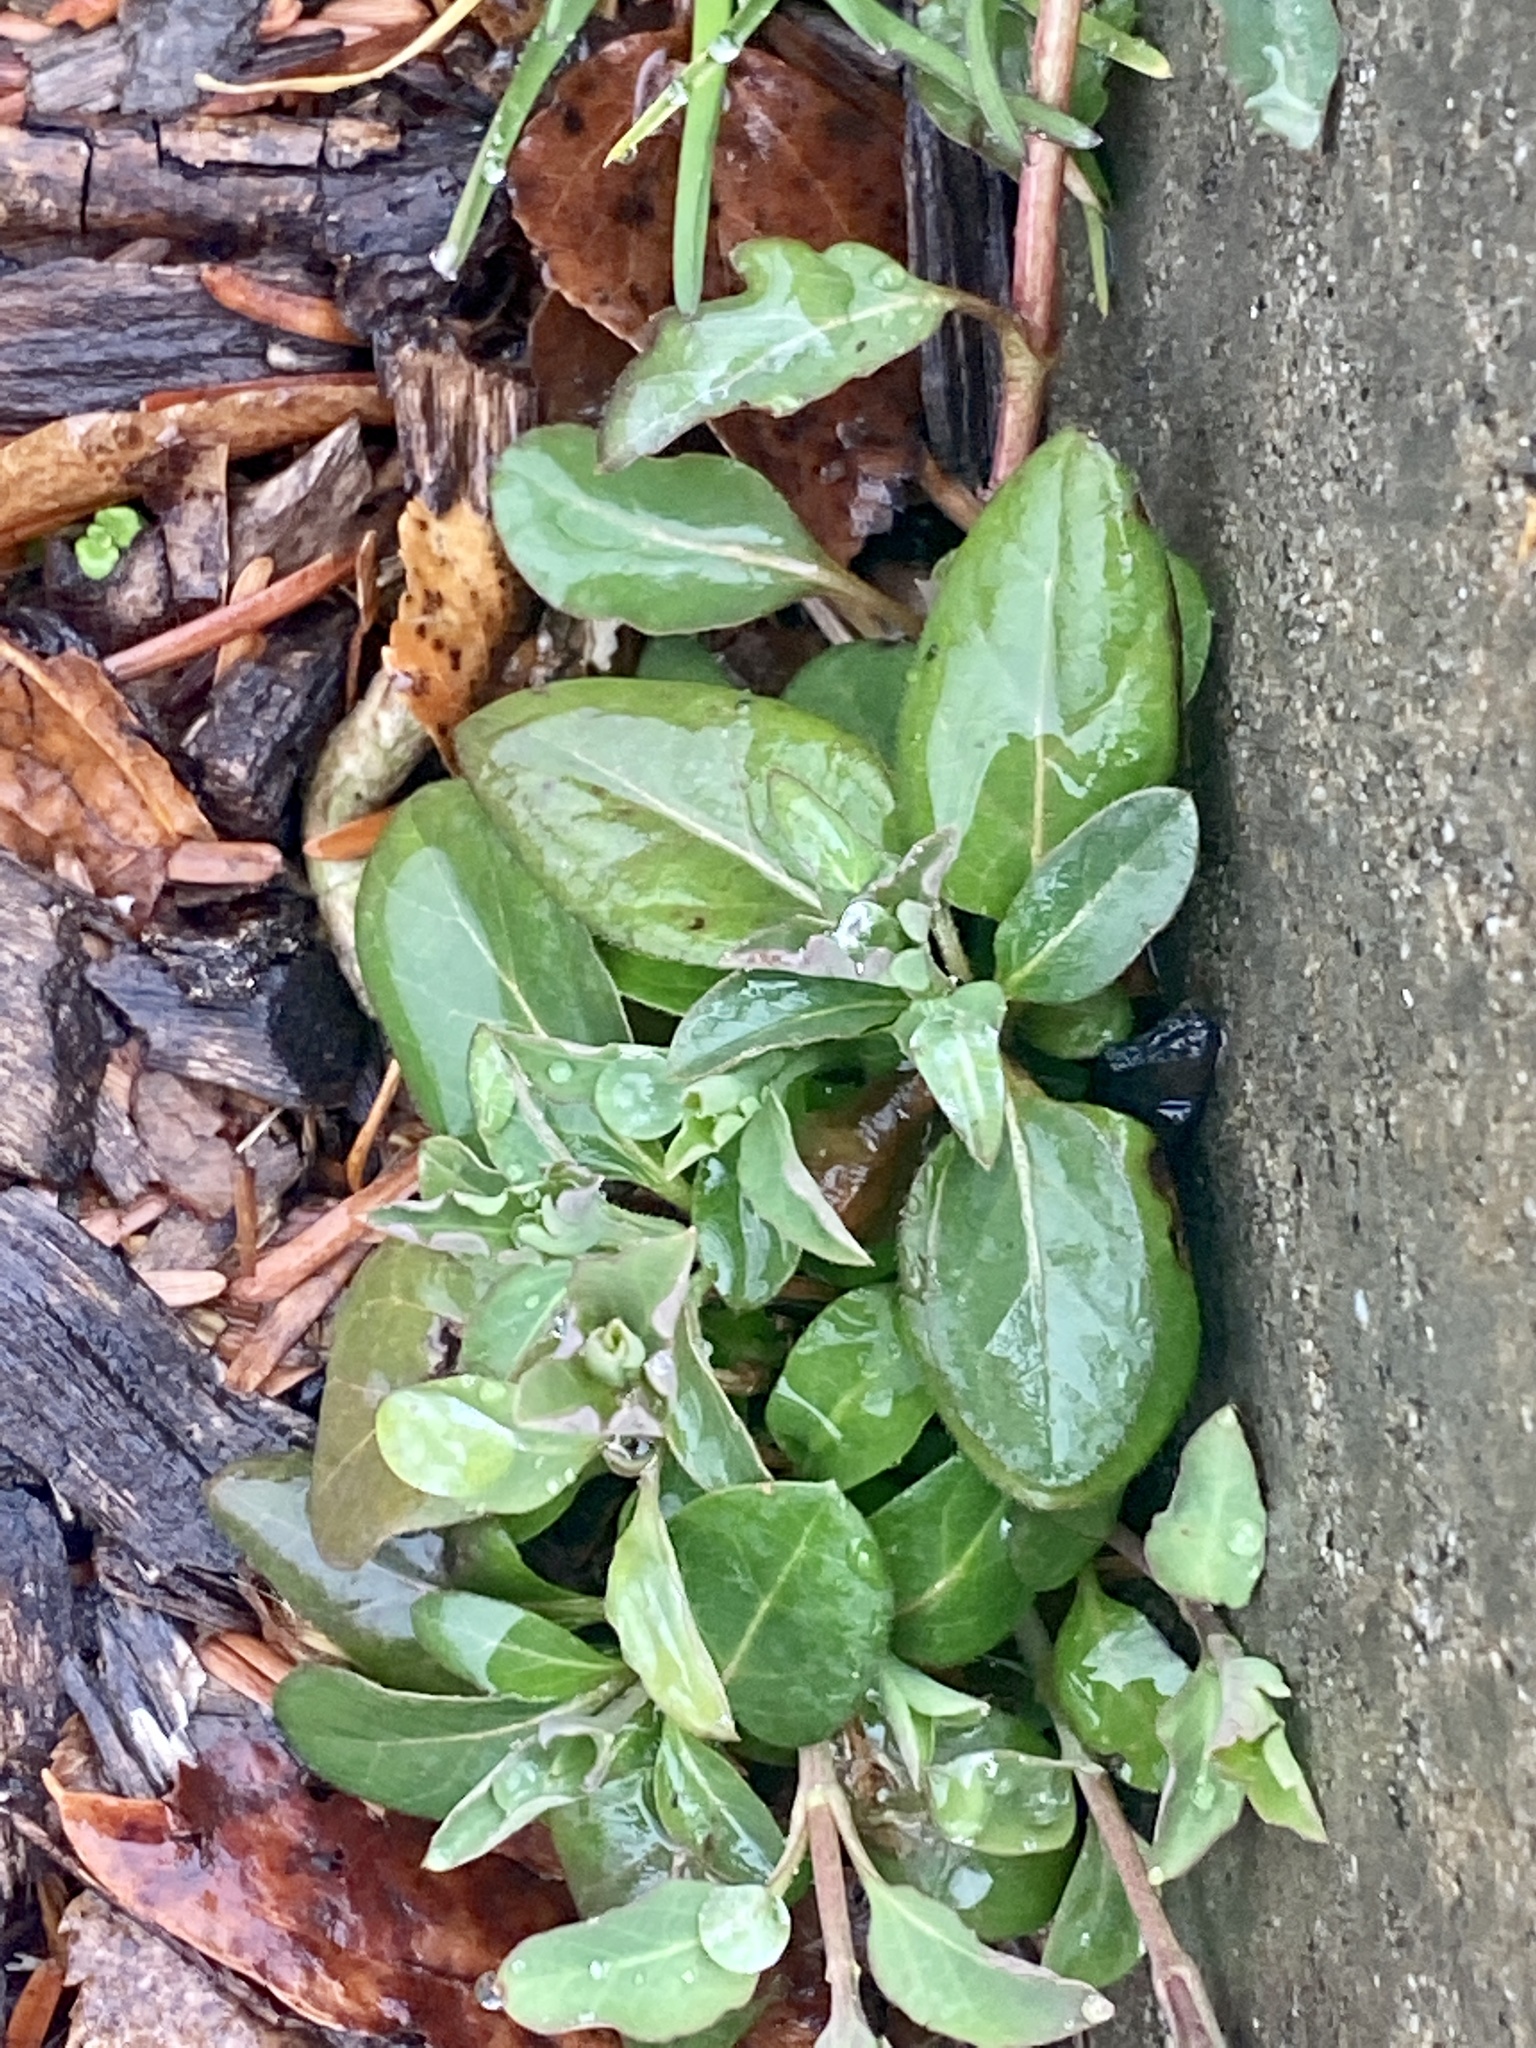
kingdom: Plantae
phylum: Tracheophyta
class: Magnoliopsida
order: Dipsacales
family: Caprifoliaceae
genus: Lonicera
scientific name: Lonicera japonica
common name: Japanese honeysuckle
